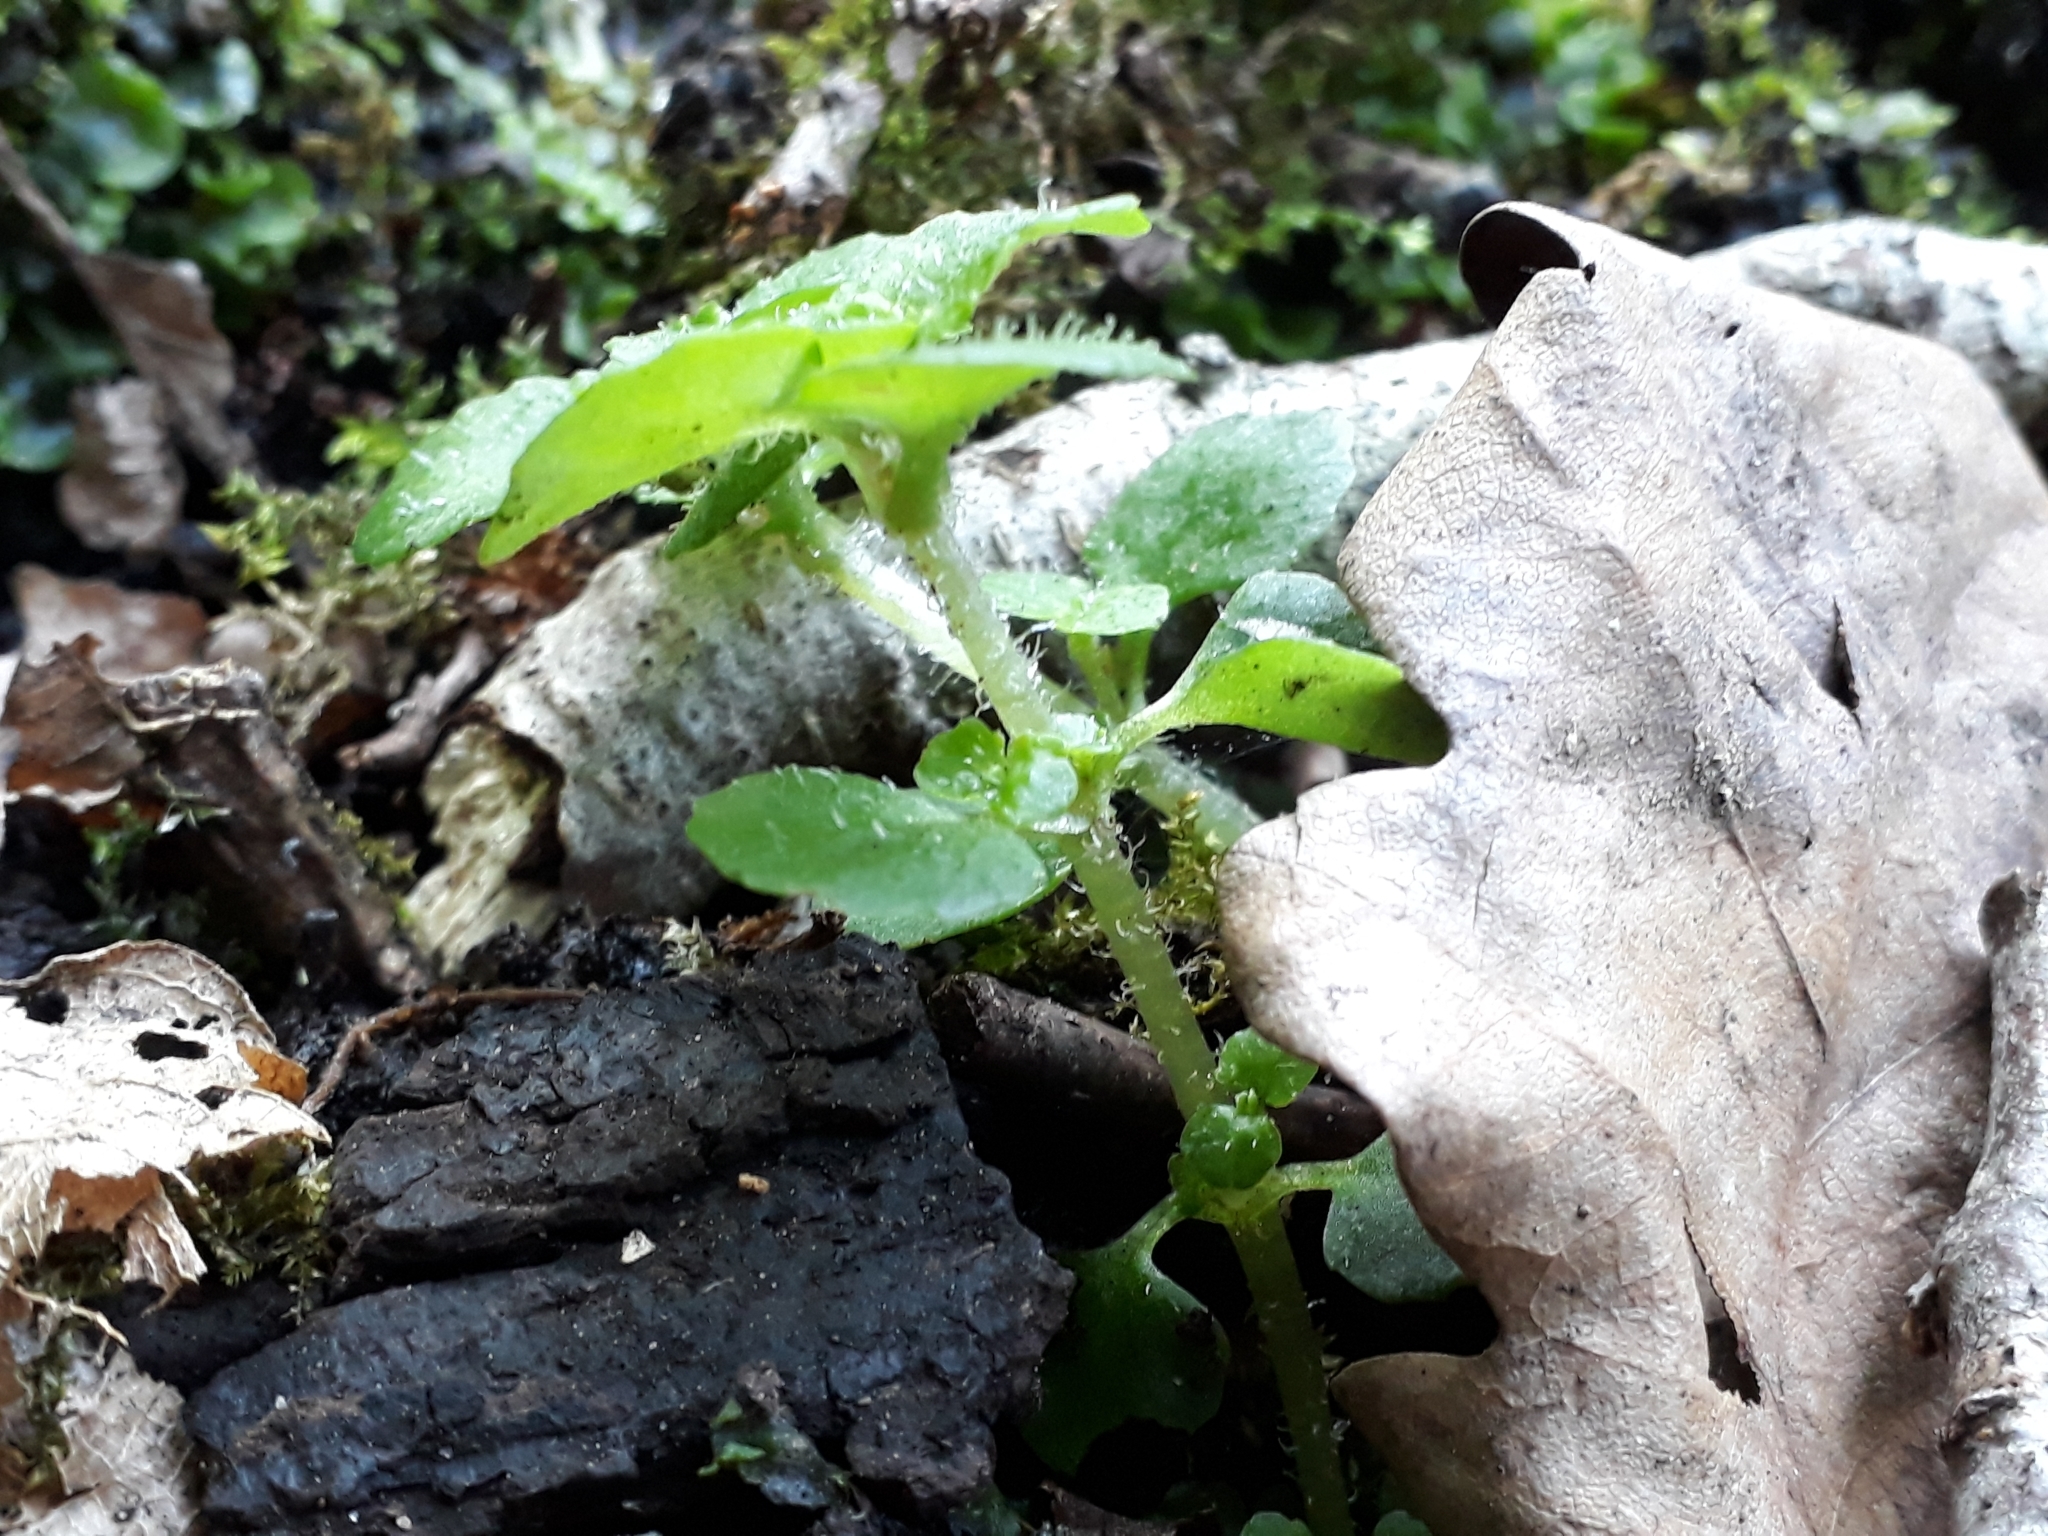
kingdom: Plantae
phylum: Tracheophyta
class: Magnoliopsida
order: Saxifragales
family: Saxifragaceae
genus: Chrysosplenium
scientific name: Chrysosplenium oppositifolium
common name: Opposite-leaved golden-saxifrage
